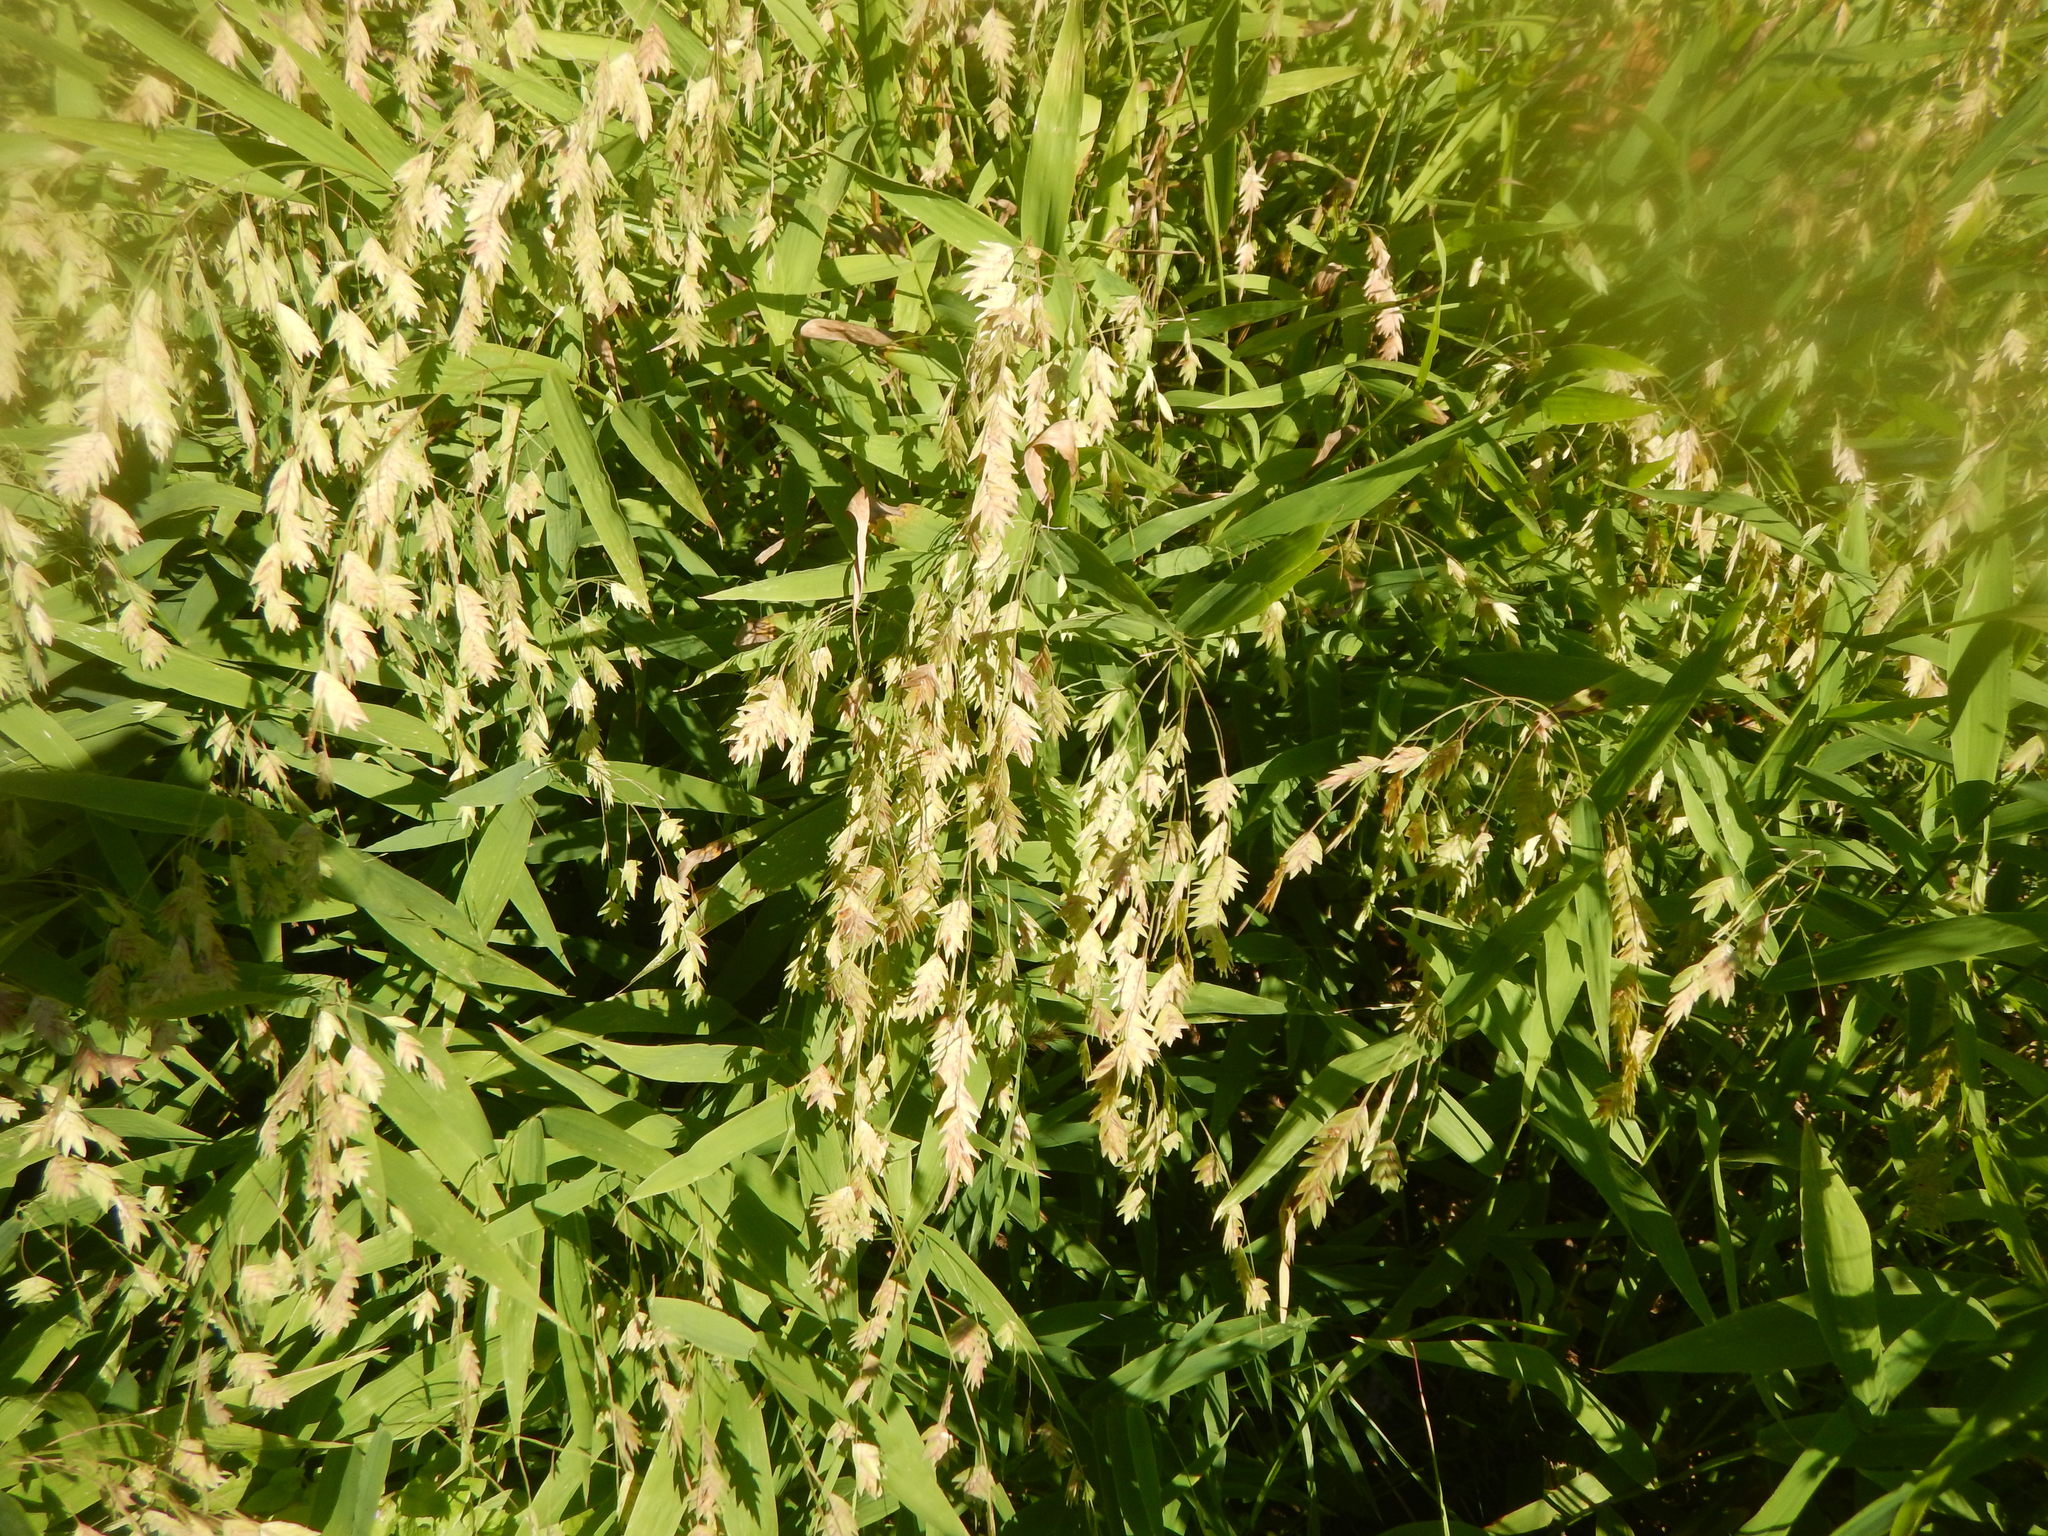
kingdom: Plantae
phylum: Tracheophyta
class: Liliopsida
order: Poales
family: Poaceae
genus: Chasmanthium
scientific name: Chasmanthium latifolium
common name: Broad-leaved chasmanthium
